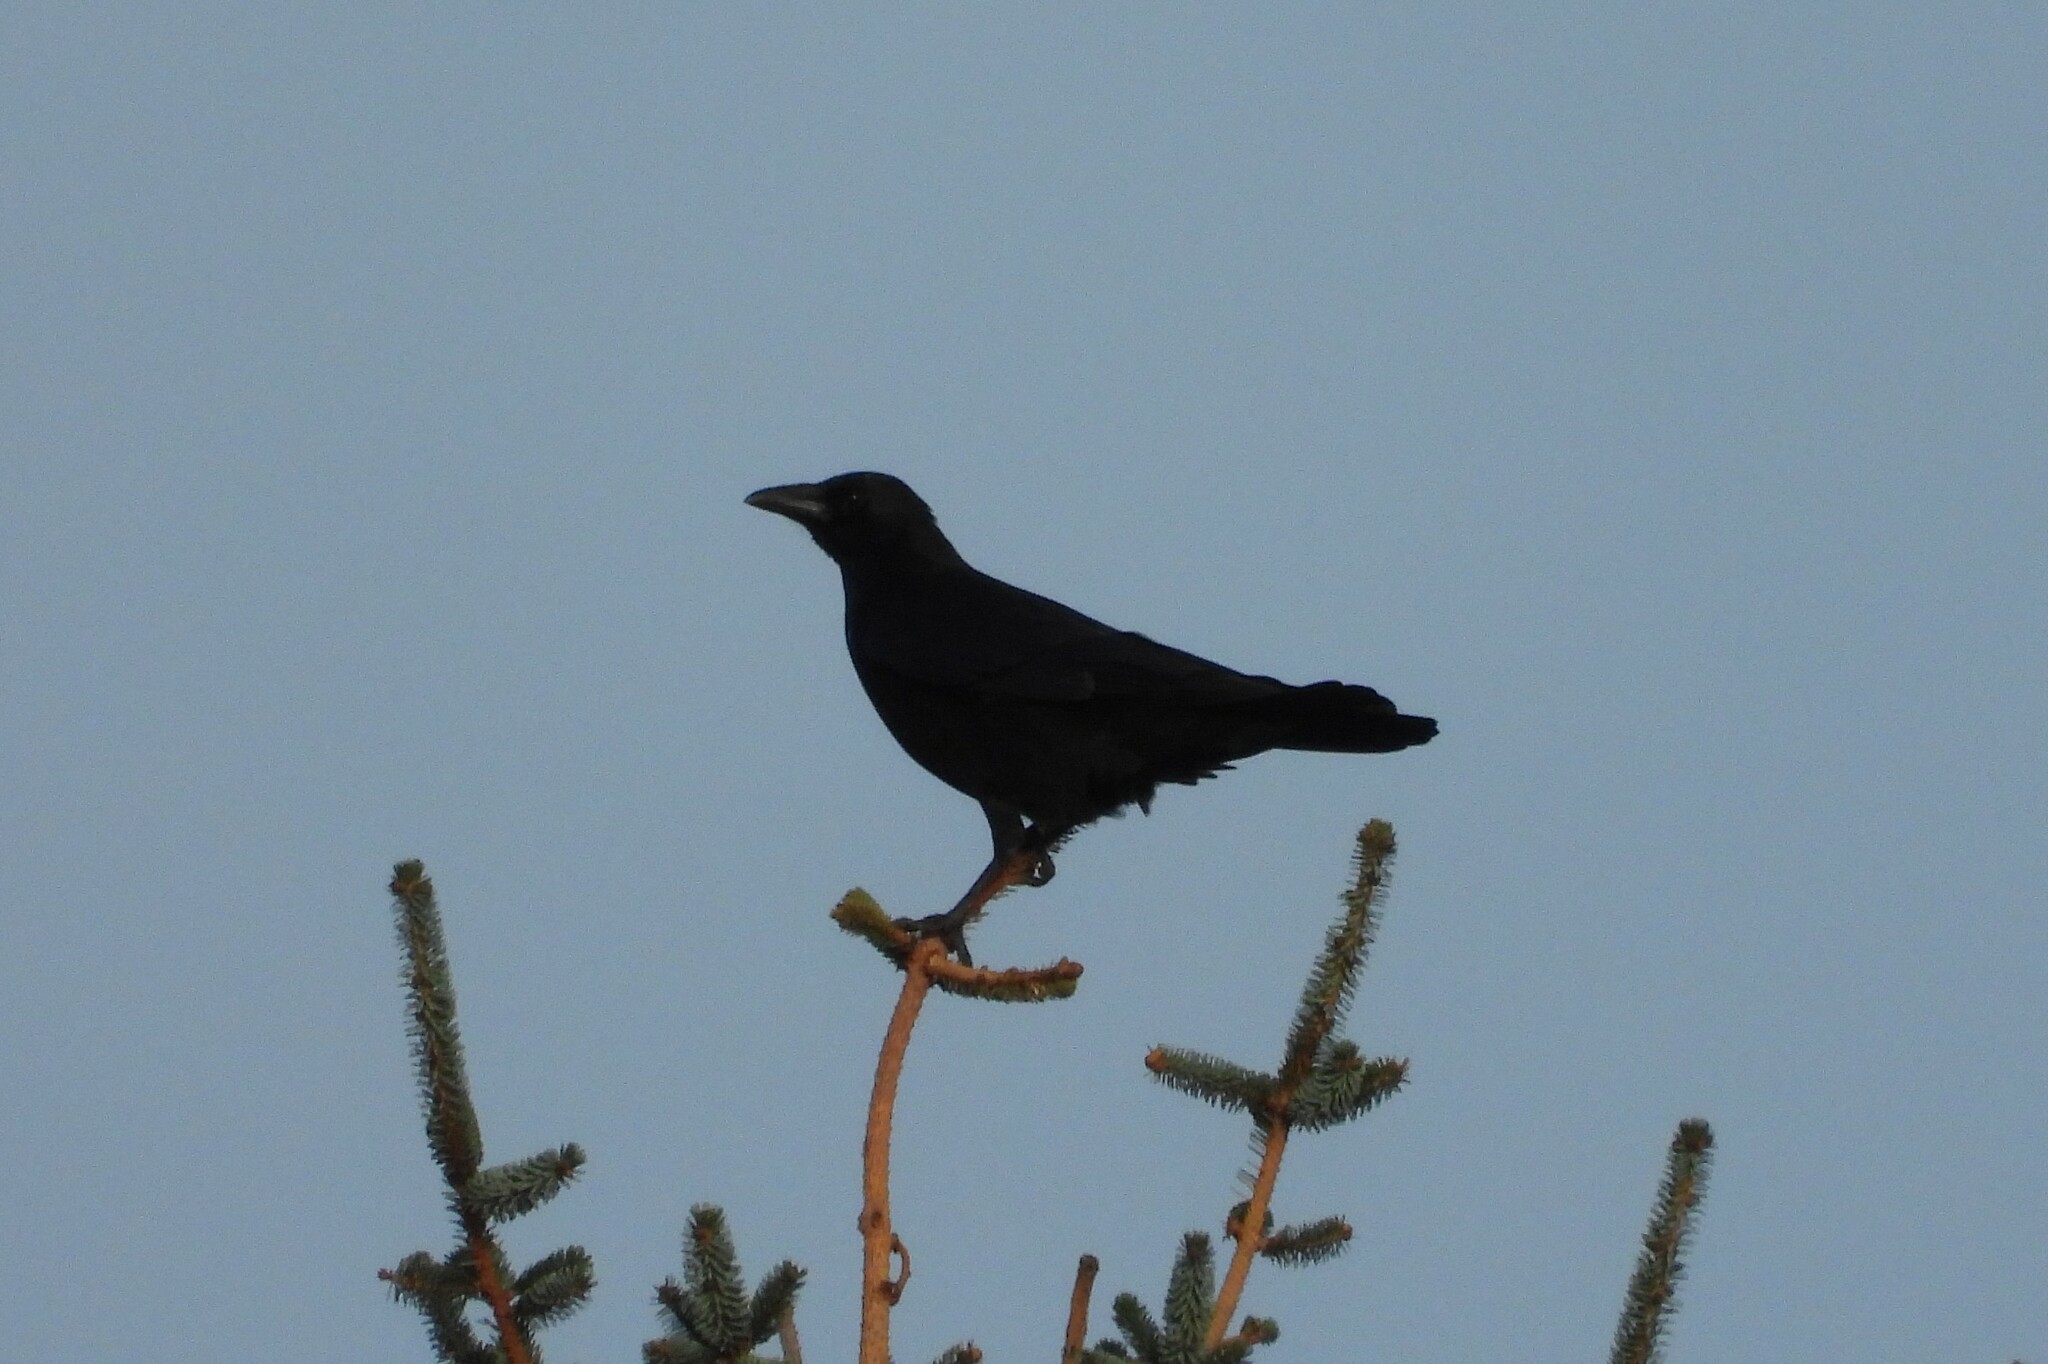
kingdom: Animalia
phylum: Chordata
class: Aves
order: Passeriformes
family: Corvidae
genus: Corvus
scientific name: Corvus corone
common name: Carrion crow
